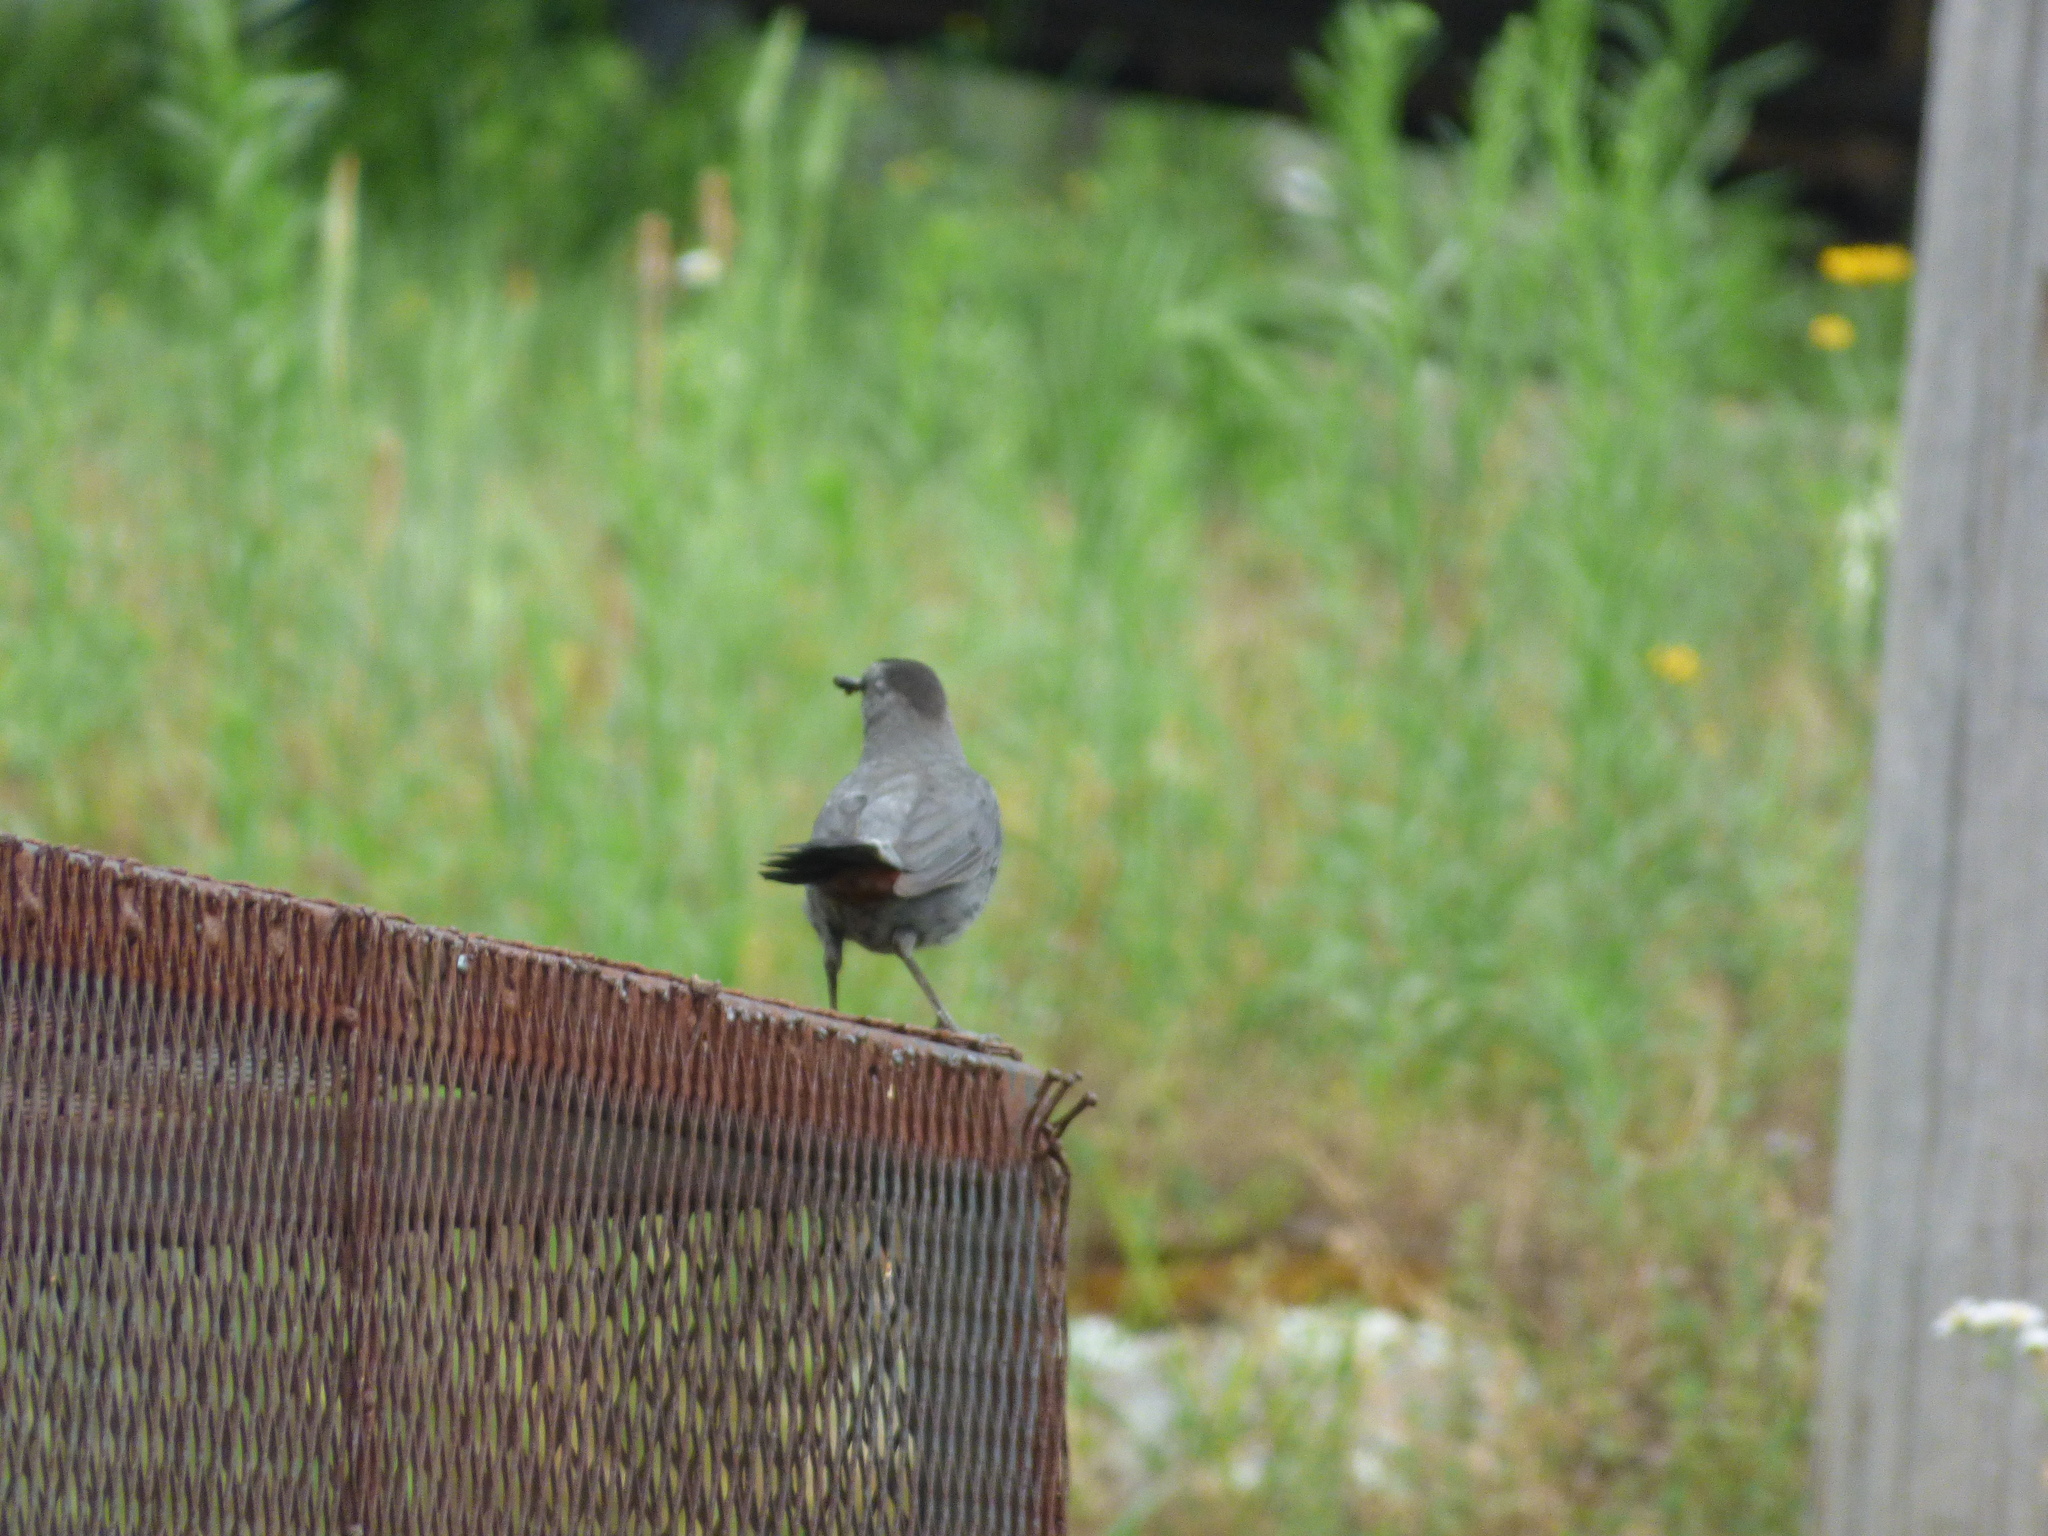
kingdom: Animalia
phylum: Chordata
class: Aves
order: Passeriformes
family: Mimidae
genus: Dumetella
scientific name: Dumetella carolinensis
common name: Gray catbird
